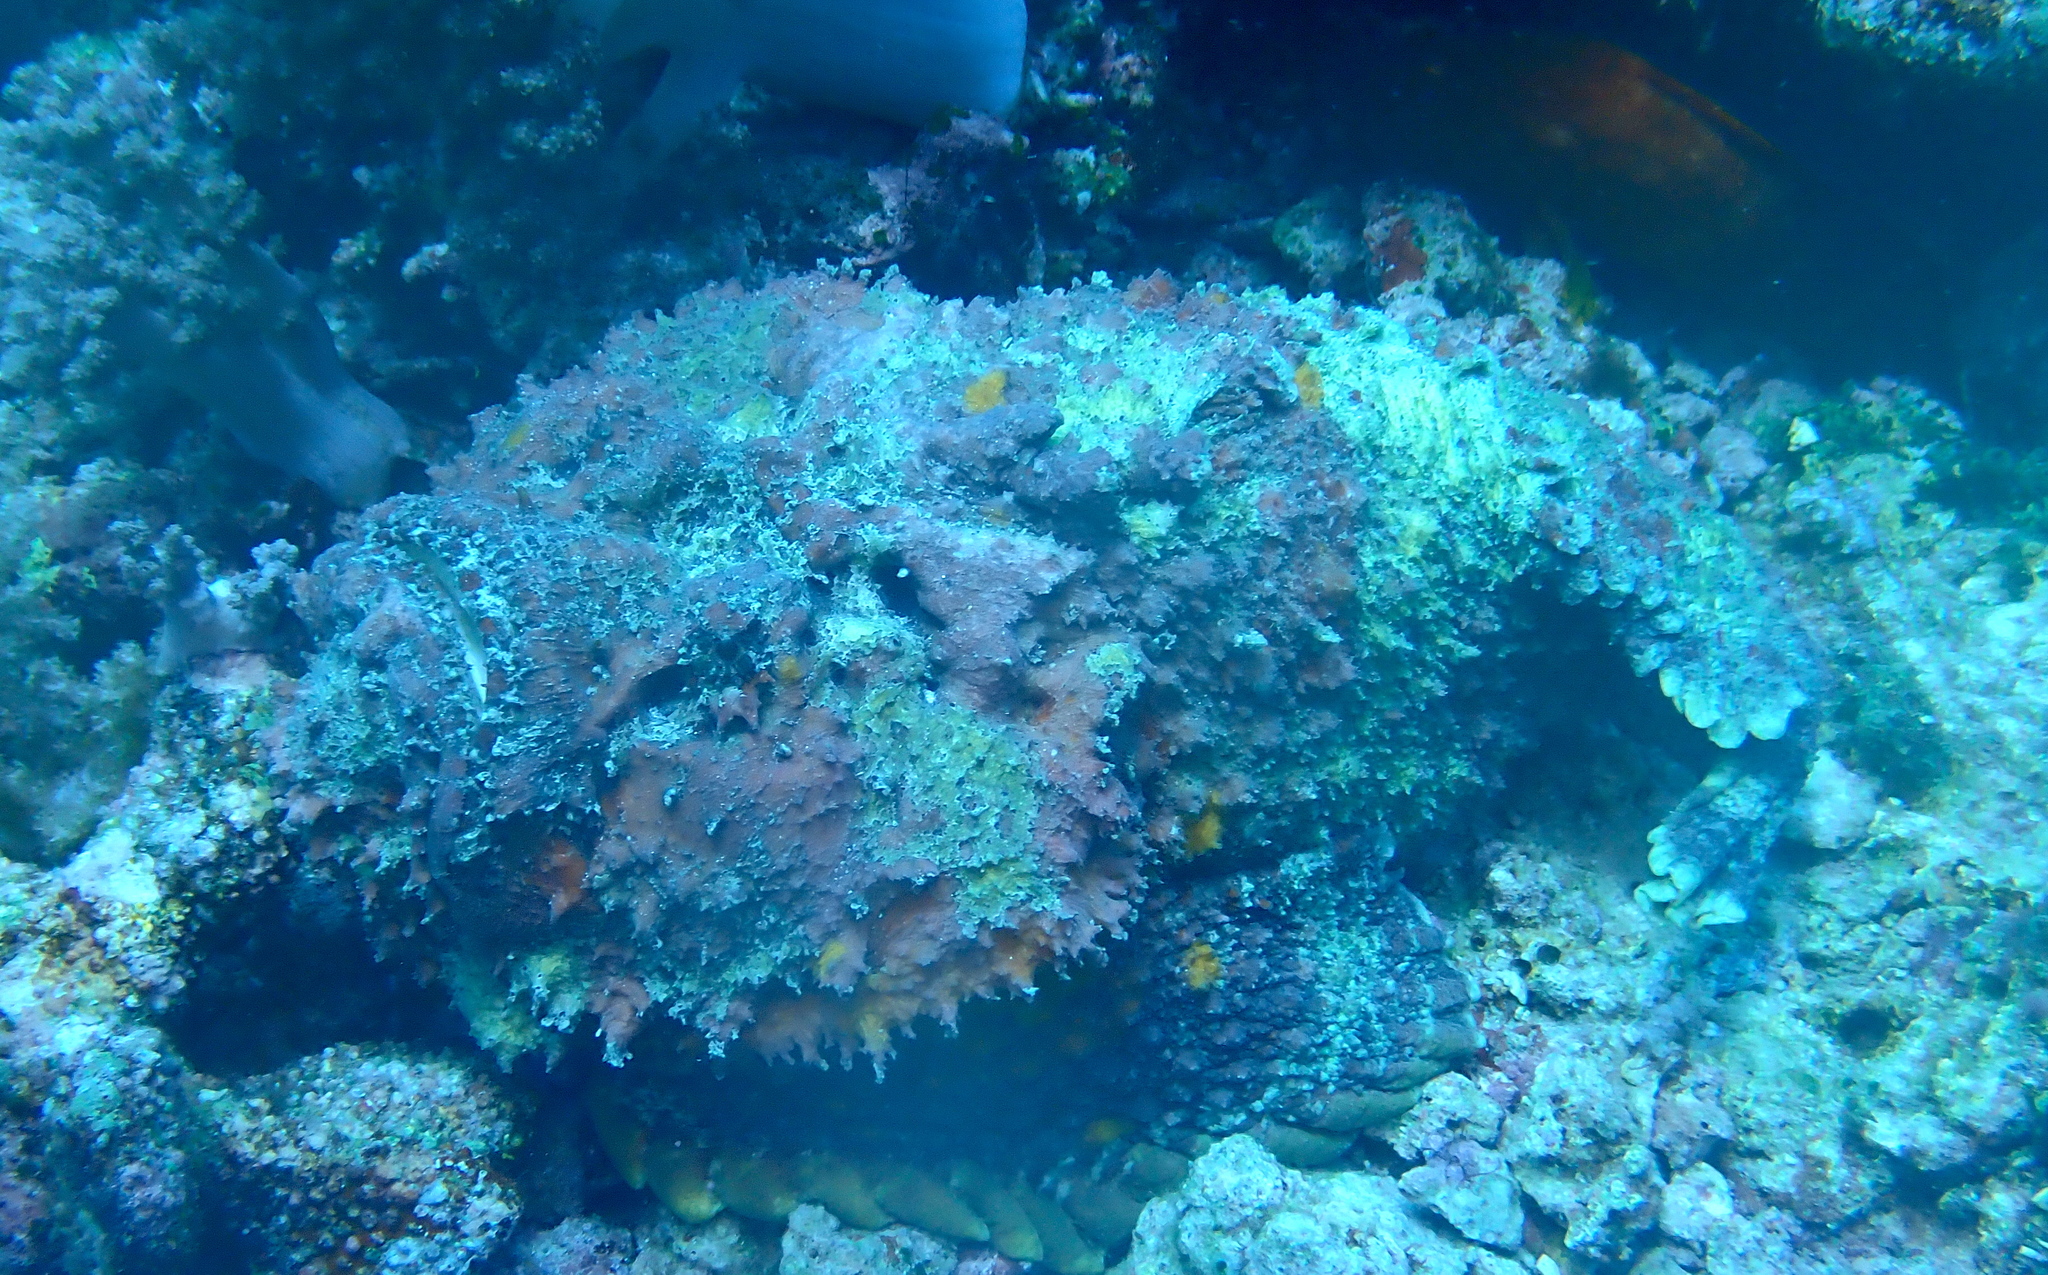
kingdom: Animalia
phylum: Chordata
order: Scorpaeniformes
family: Synanceiidae
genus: Synanceia
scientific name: Synanceia verrucosa
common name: Stonefish
